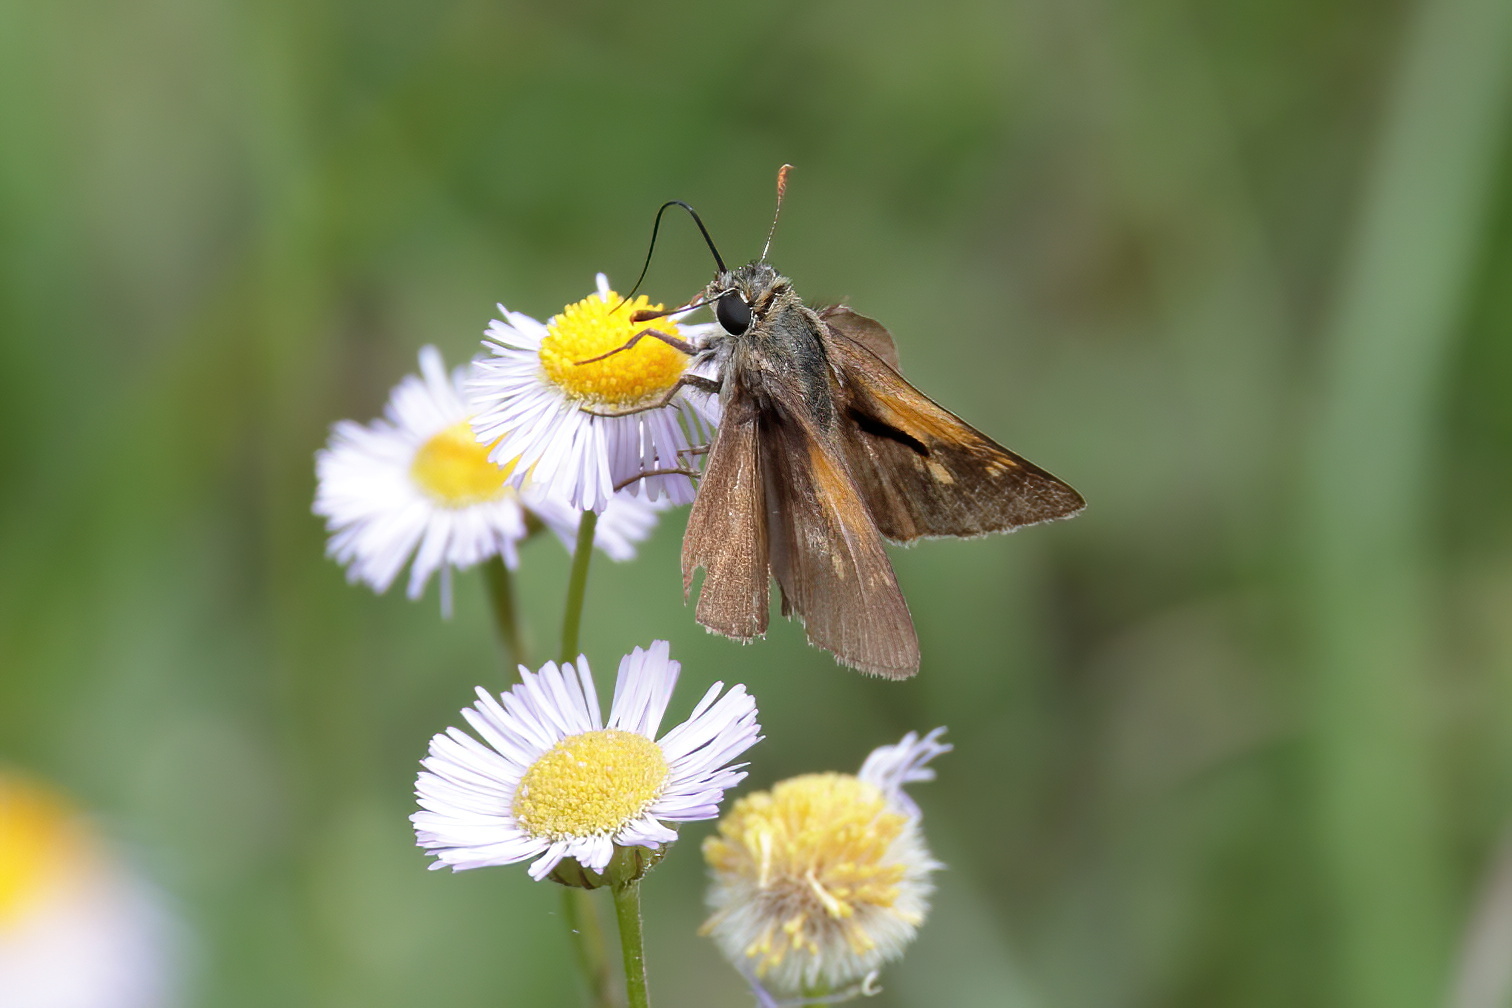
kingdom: Animalia
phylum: Arthropoda
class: Insecta
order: Lepidoptera
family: Hesperiidae
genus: Polites
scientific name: Polites themistocles
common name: Tawny-edged skipper
